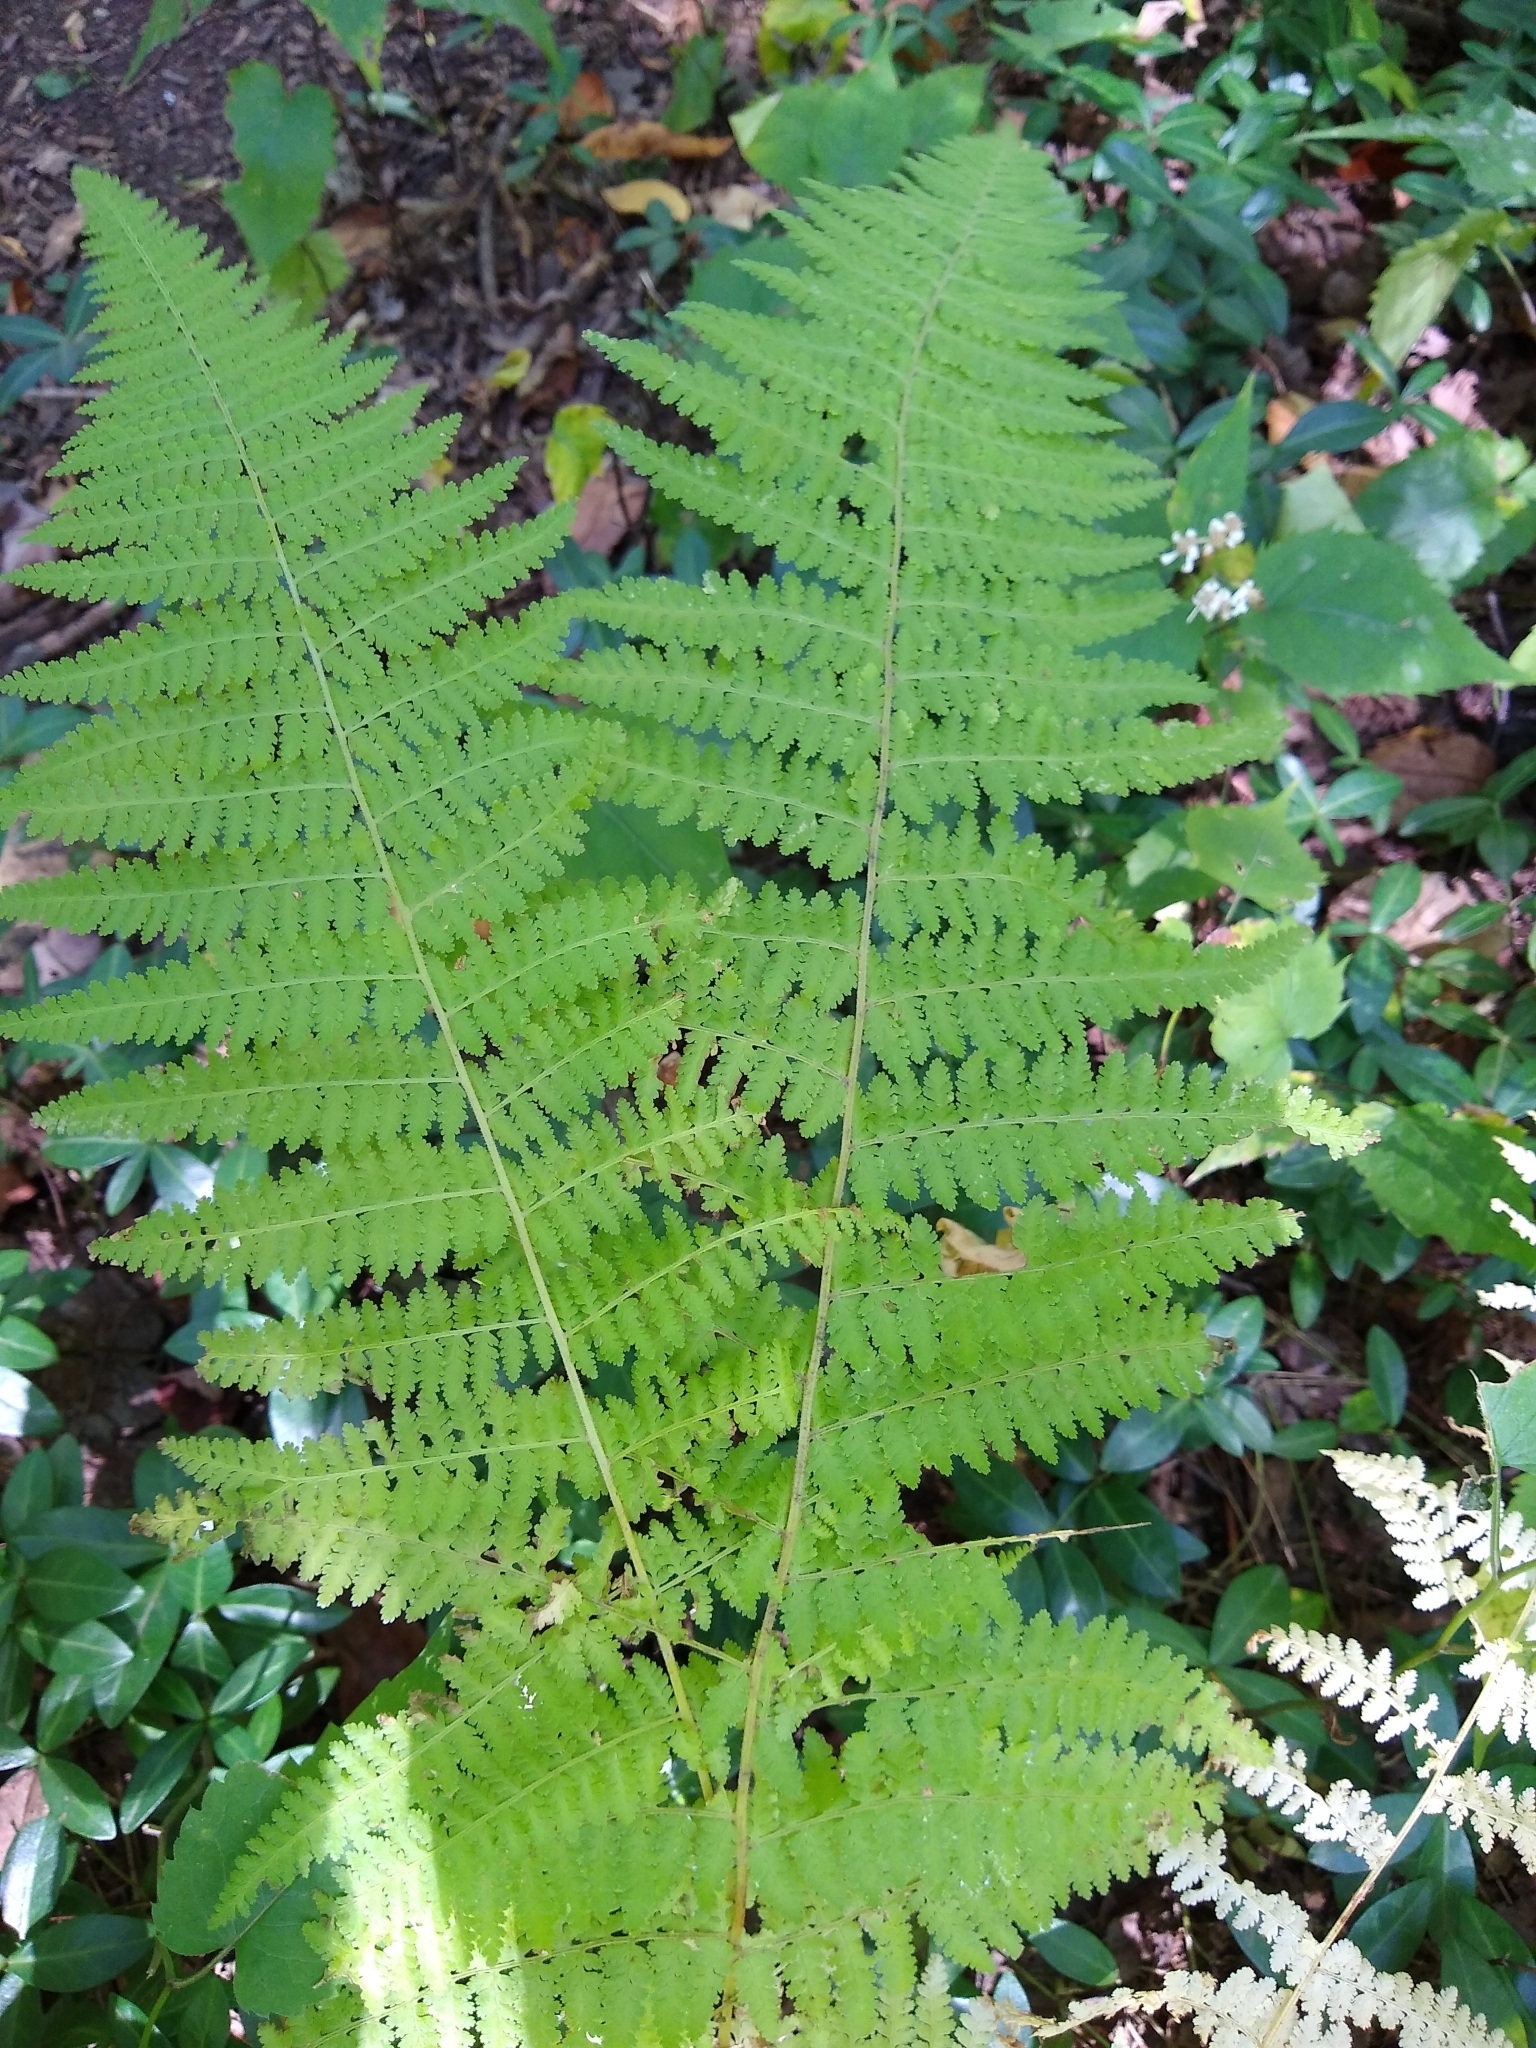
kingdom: Plantae
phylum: Tracheophyta
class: Polypodiopsida
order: Polypodiales
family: Dennstaedtiaceae
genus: Sitobolium
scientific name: Sitobolium punctilobum
